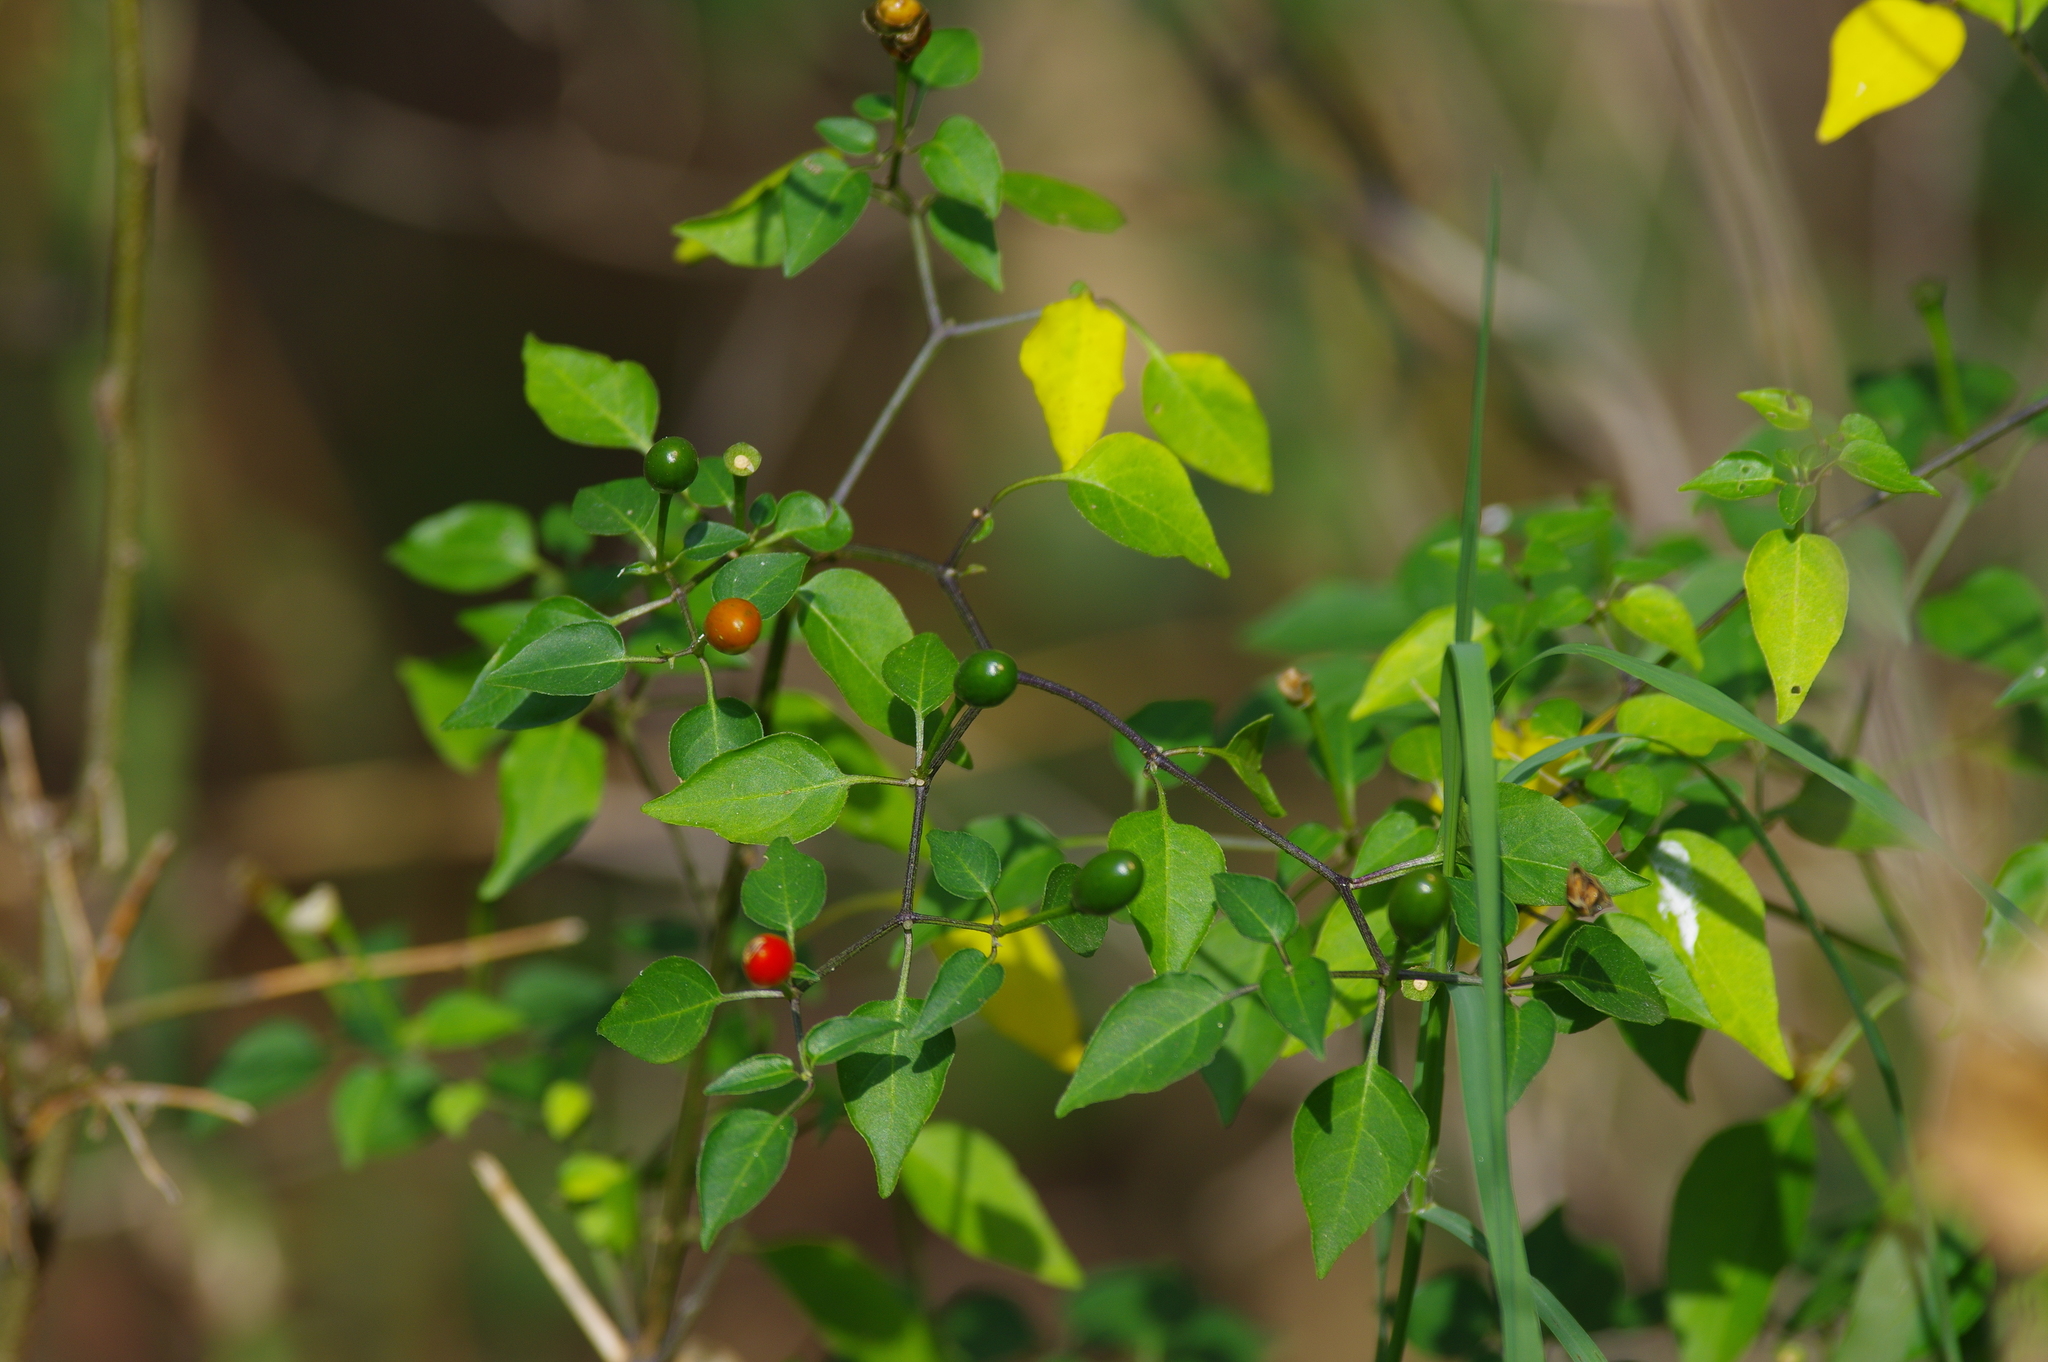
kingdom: Plantae
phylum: Tracheophyta
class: Magnoliopsida
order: Solanales
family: Solanaceae
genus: Capsicum
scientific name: Capsicum annuum
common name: Sweet pepper
